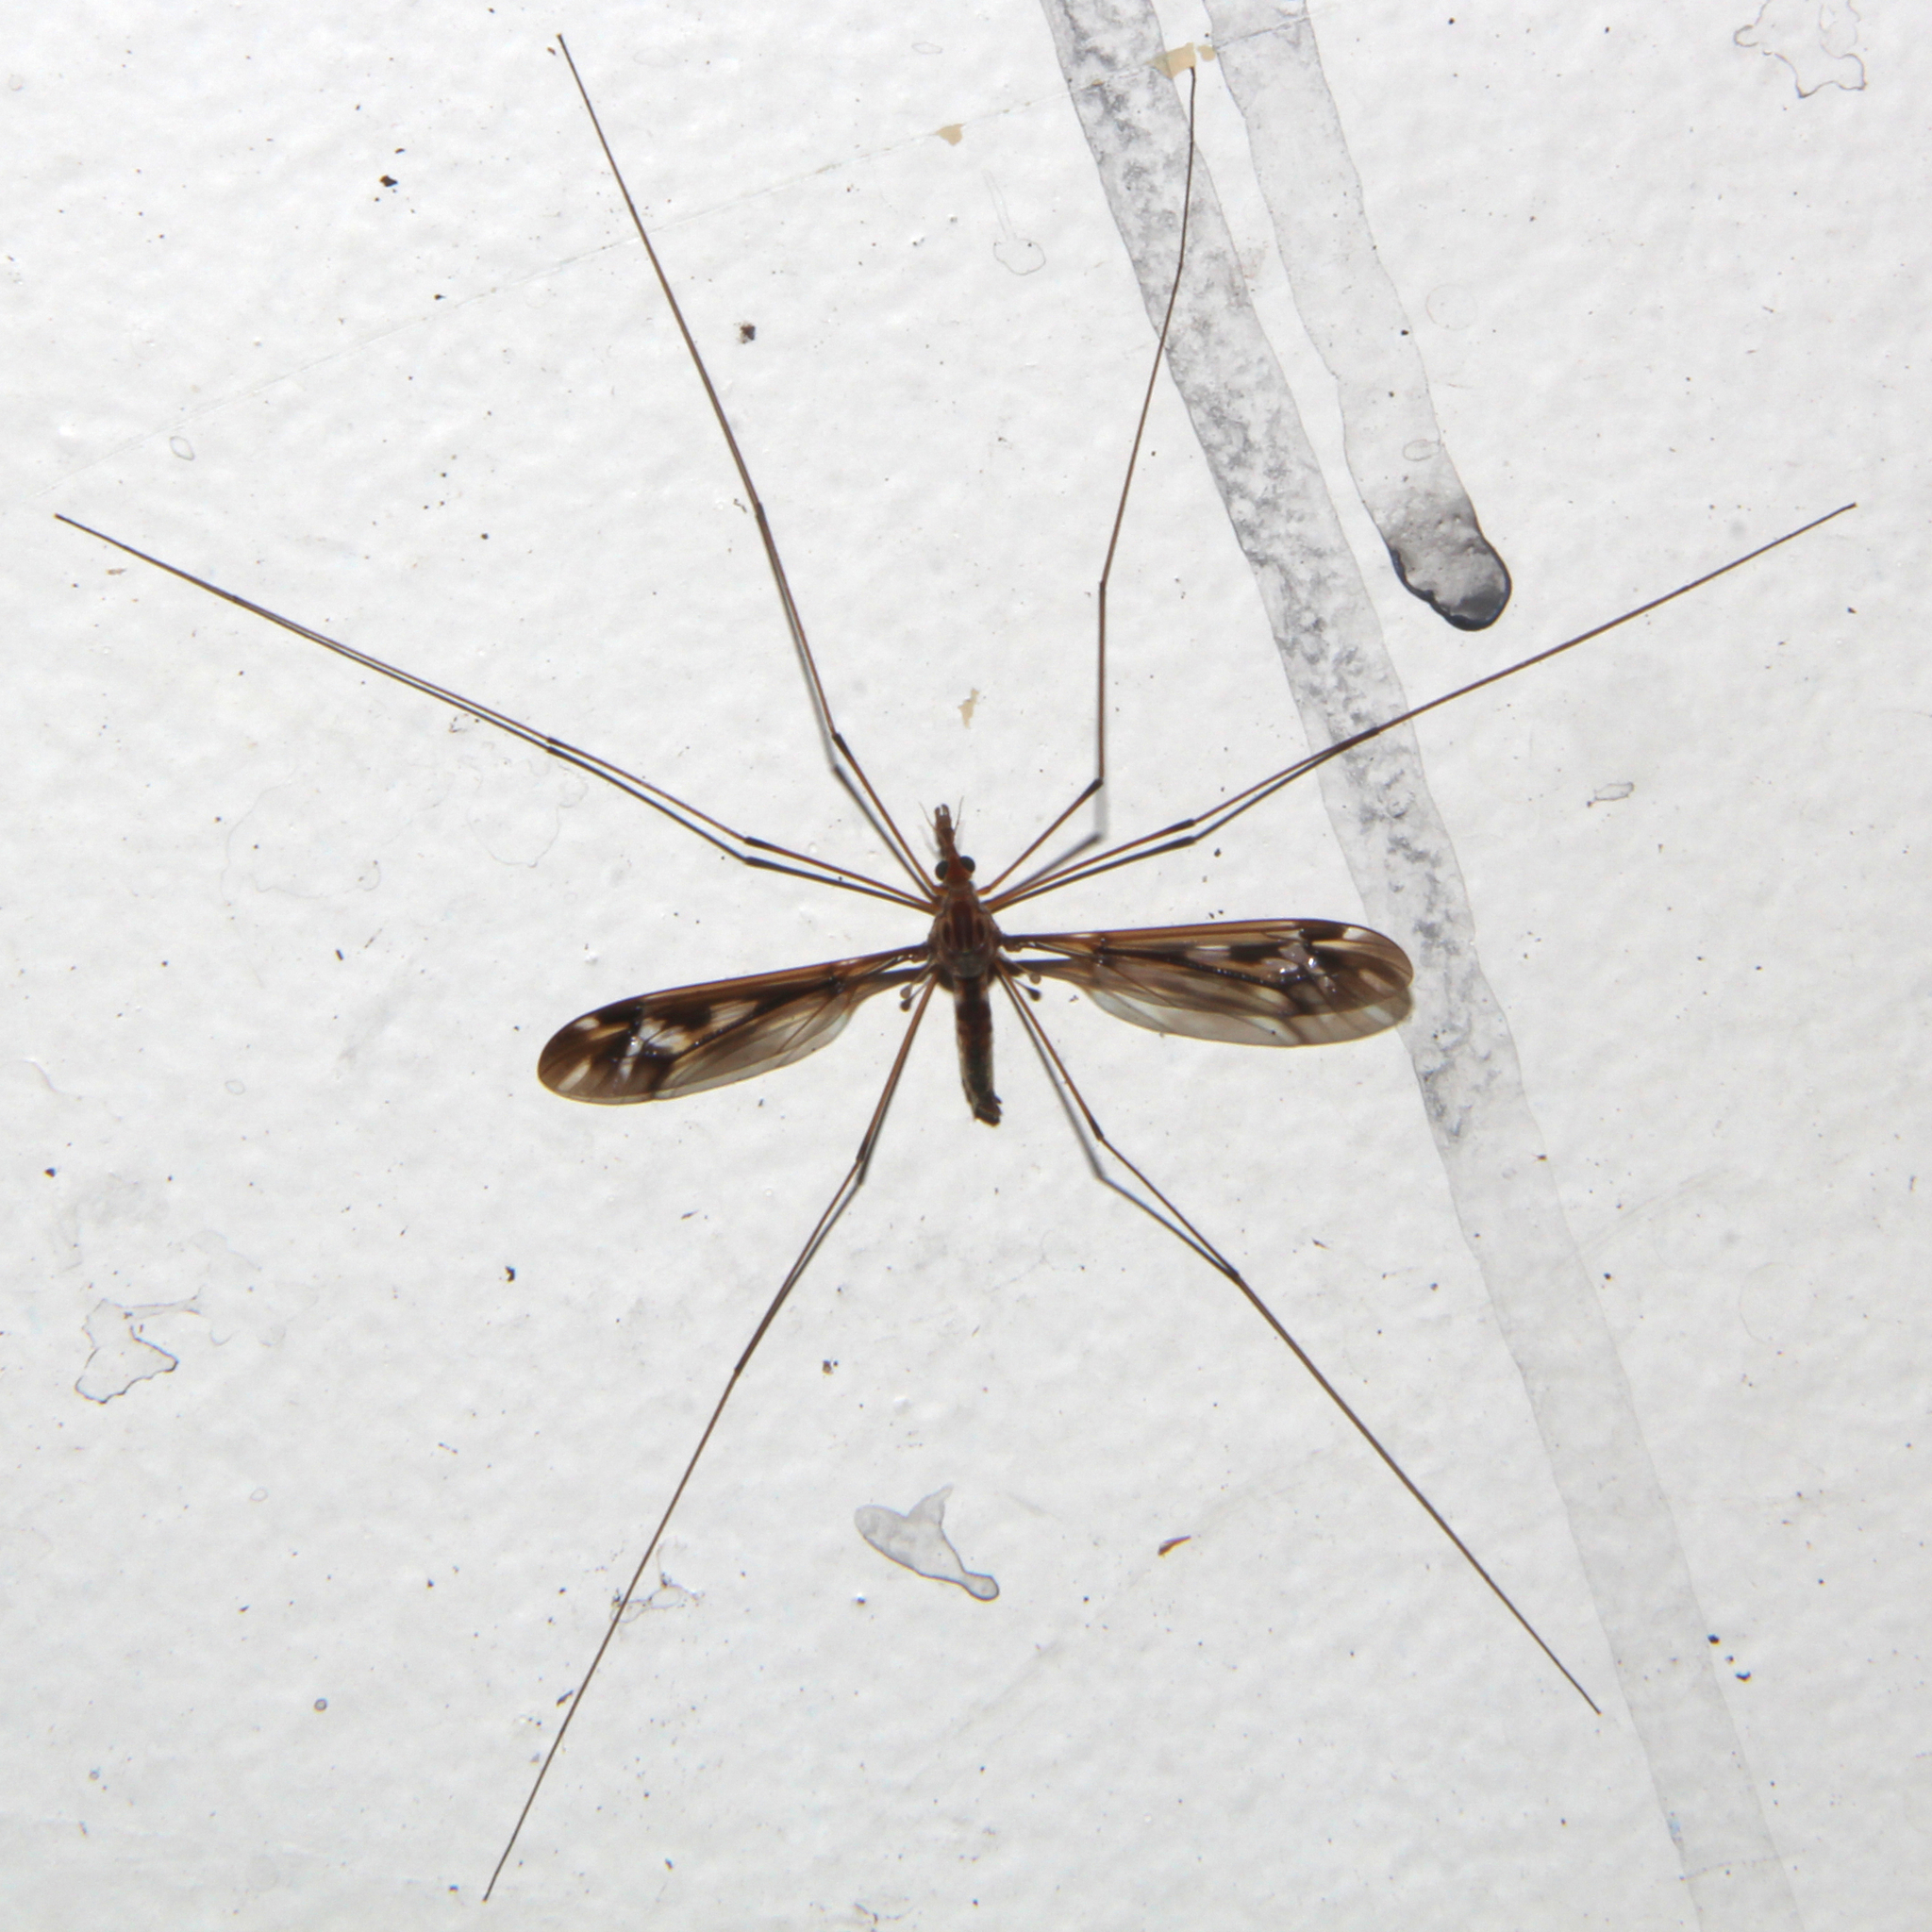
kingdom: Animalia
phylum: Arthropoda
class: Insecta
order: Diptera
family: Tipulidae
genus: Leptotarsus
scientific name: Leptotarsus huttoni
